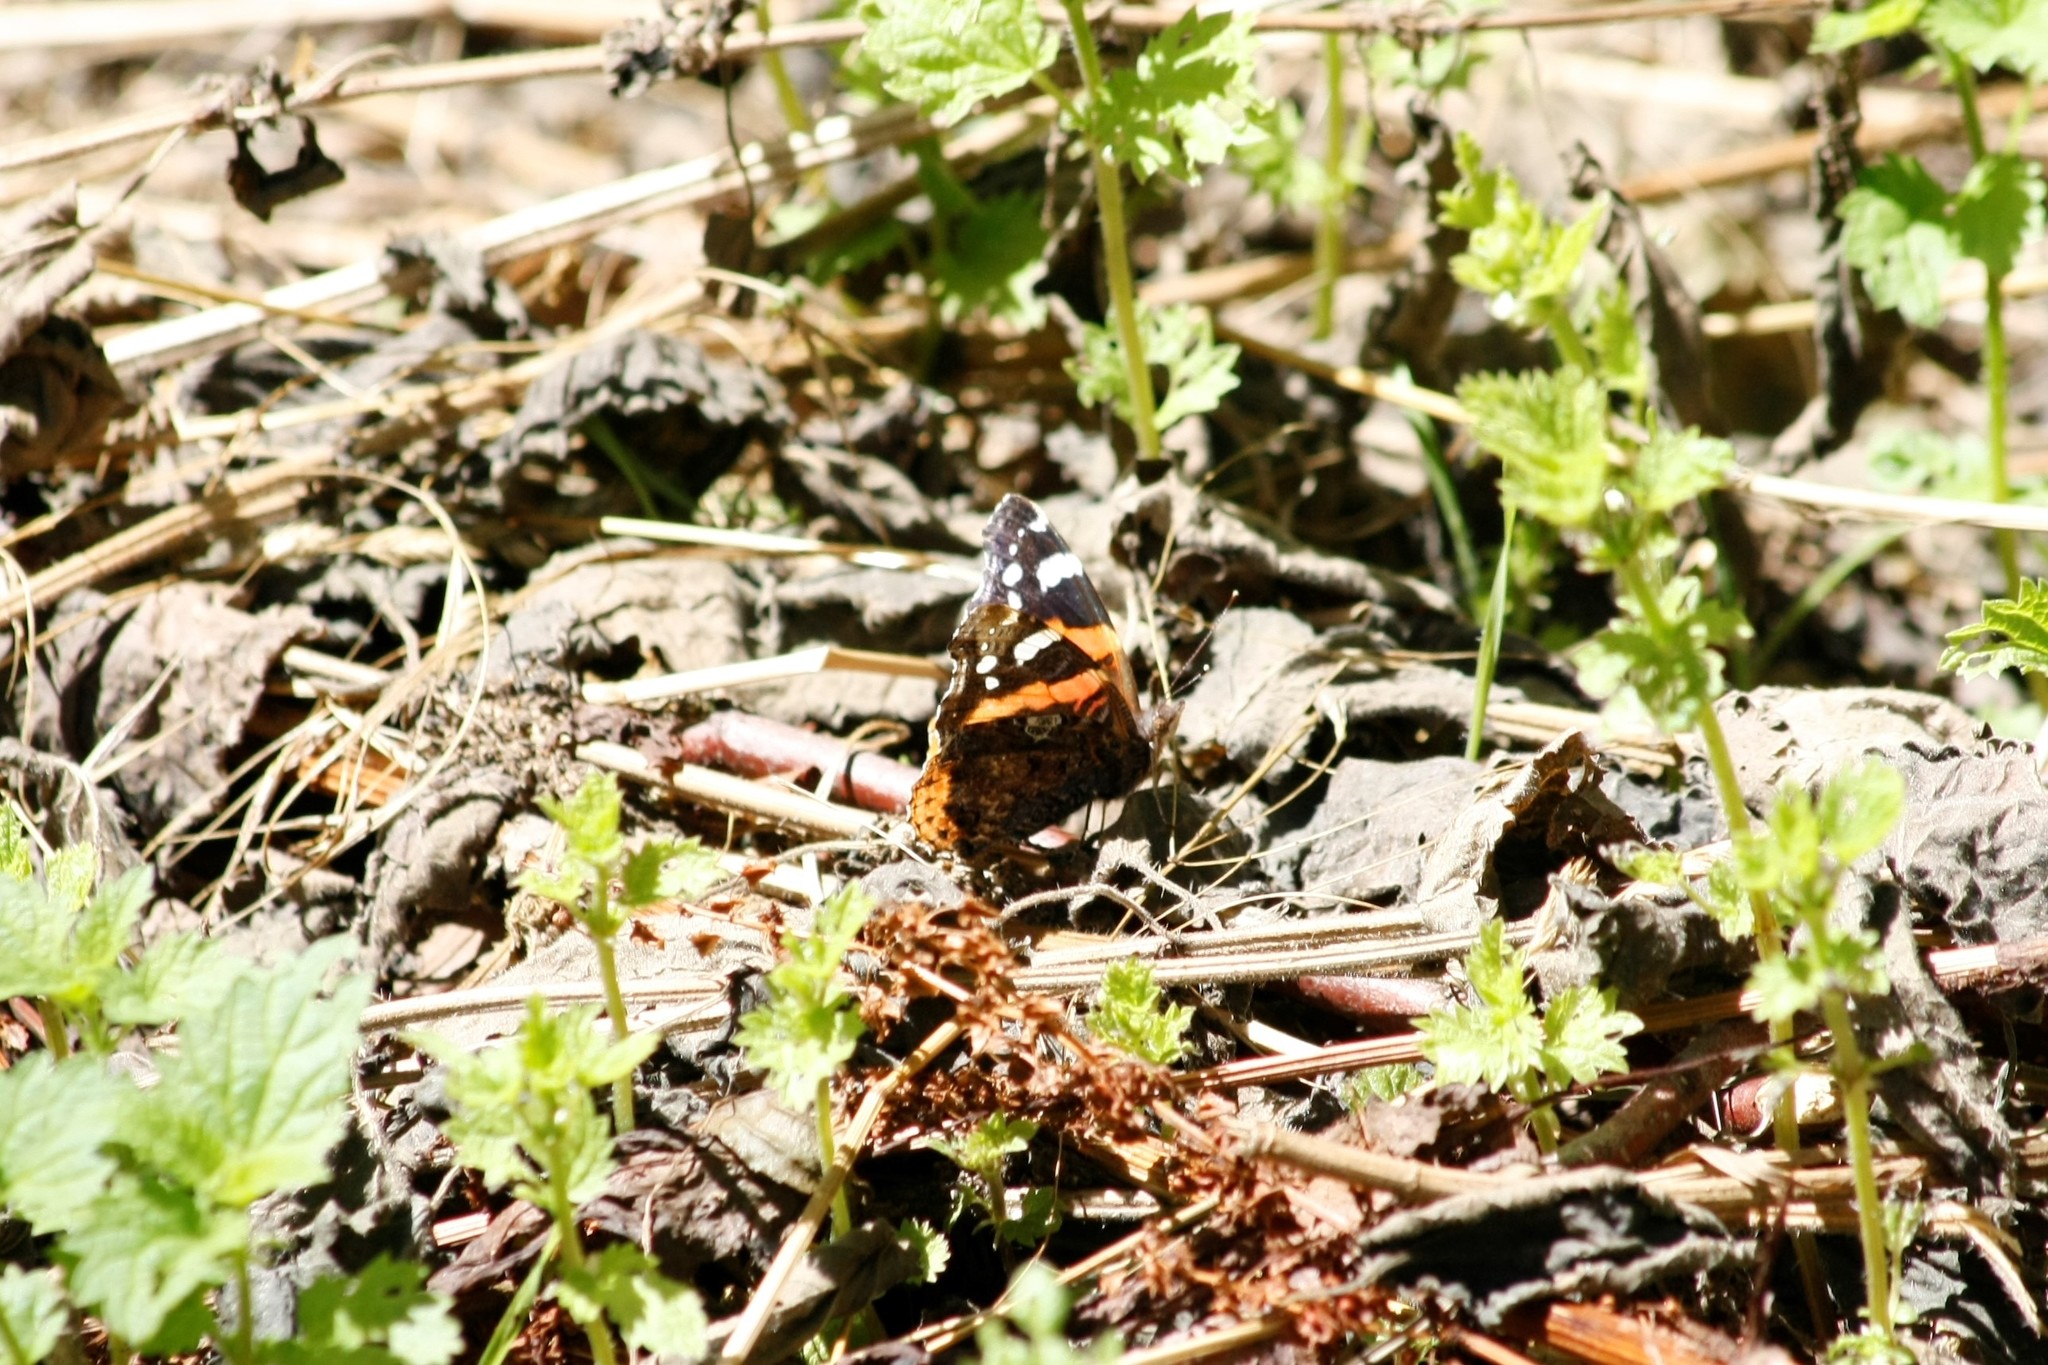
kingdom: Animalia
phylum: Arthropoda
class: Insecta
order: Lepidoptera
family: Nymphalidae
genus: Vanessa
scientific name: Vanessa atalanta
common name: Red admiral
